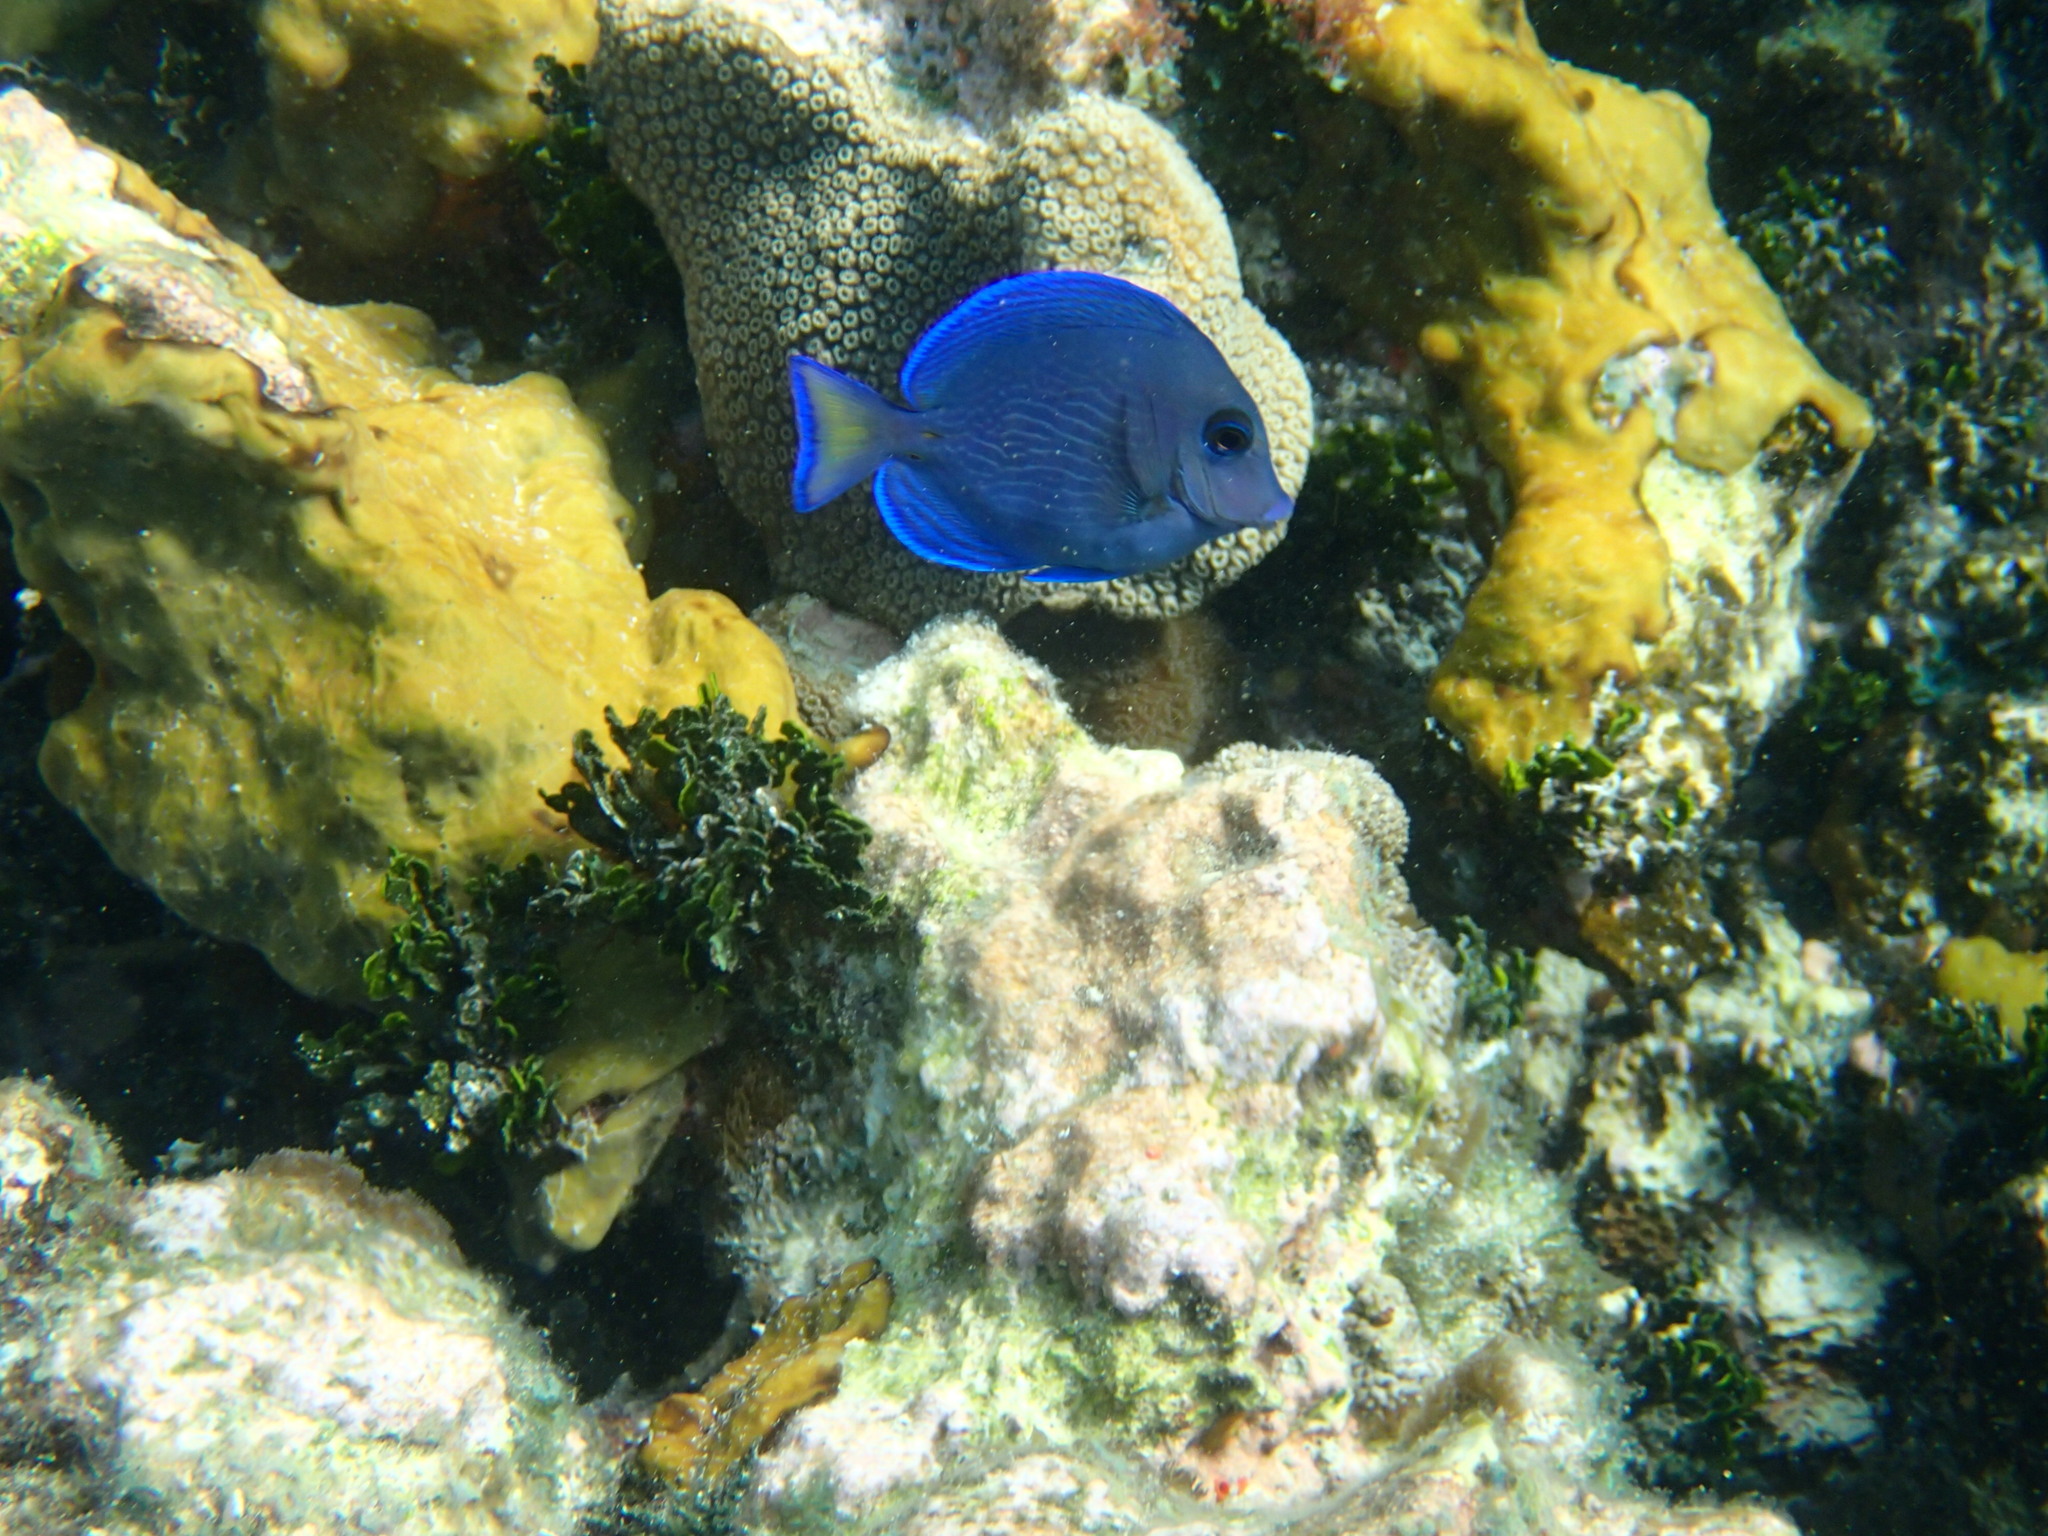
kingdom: Animalia
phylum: Chordata
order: Perciformes
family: Acanthuridae
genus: Acanthurus
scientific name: Acanthurus coeruleus
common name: Blue tang
